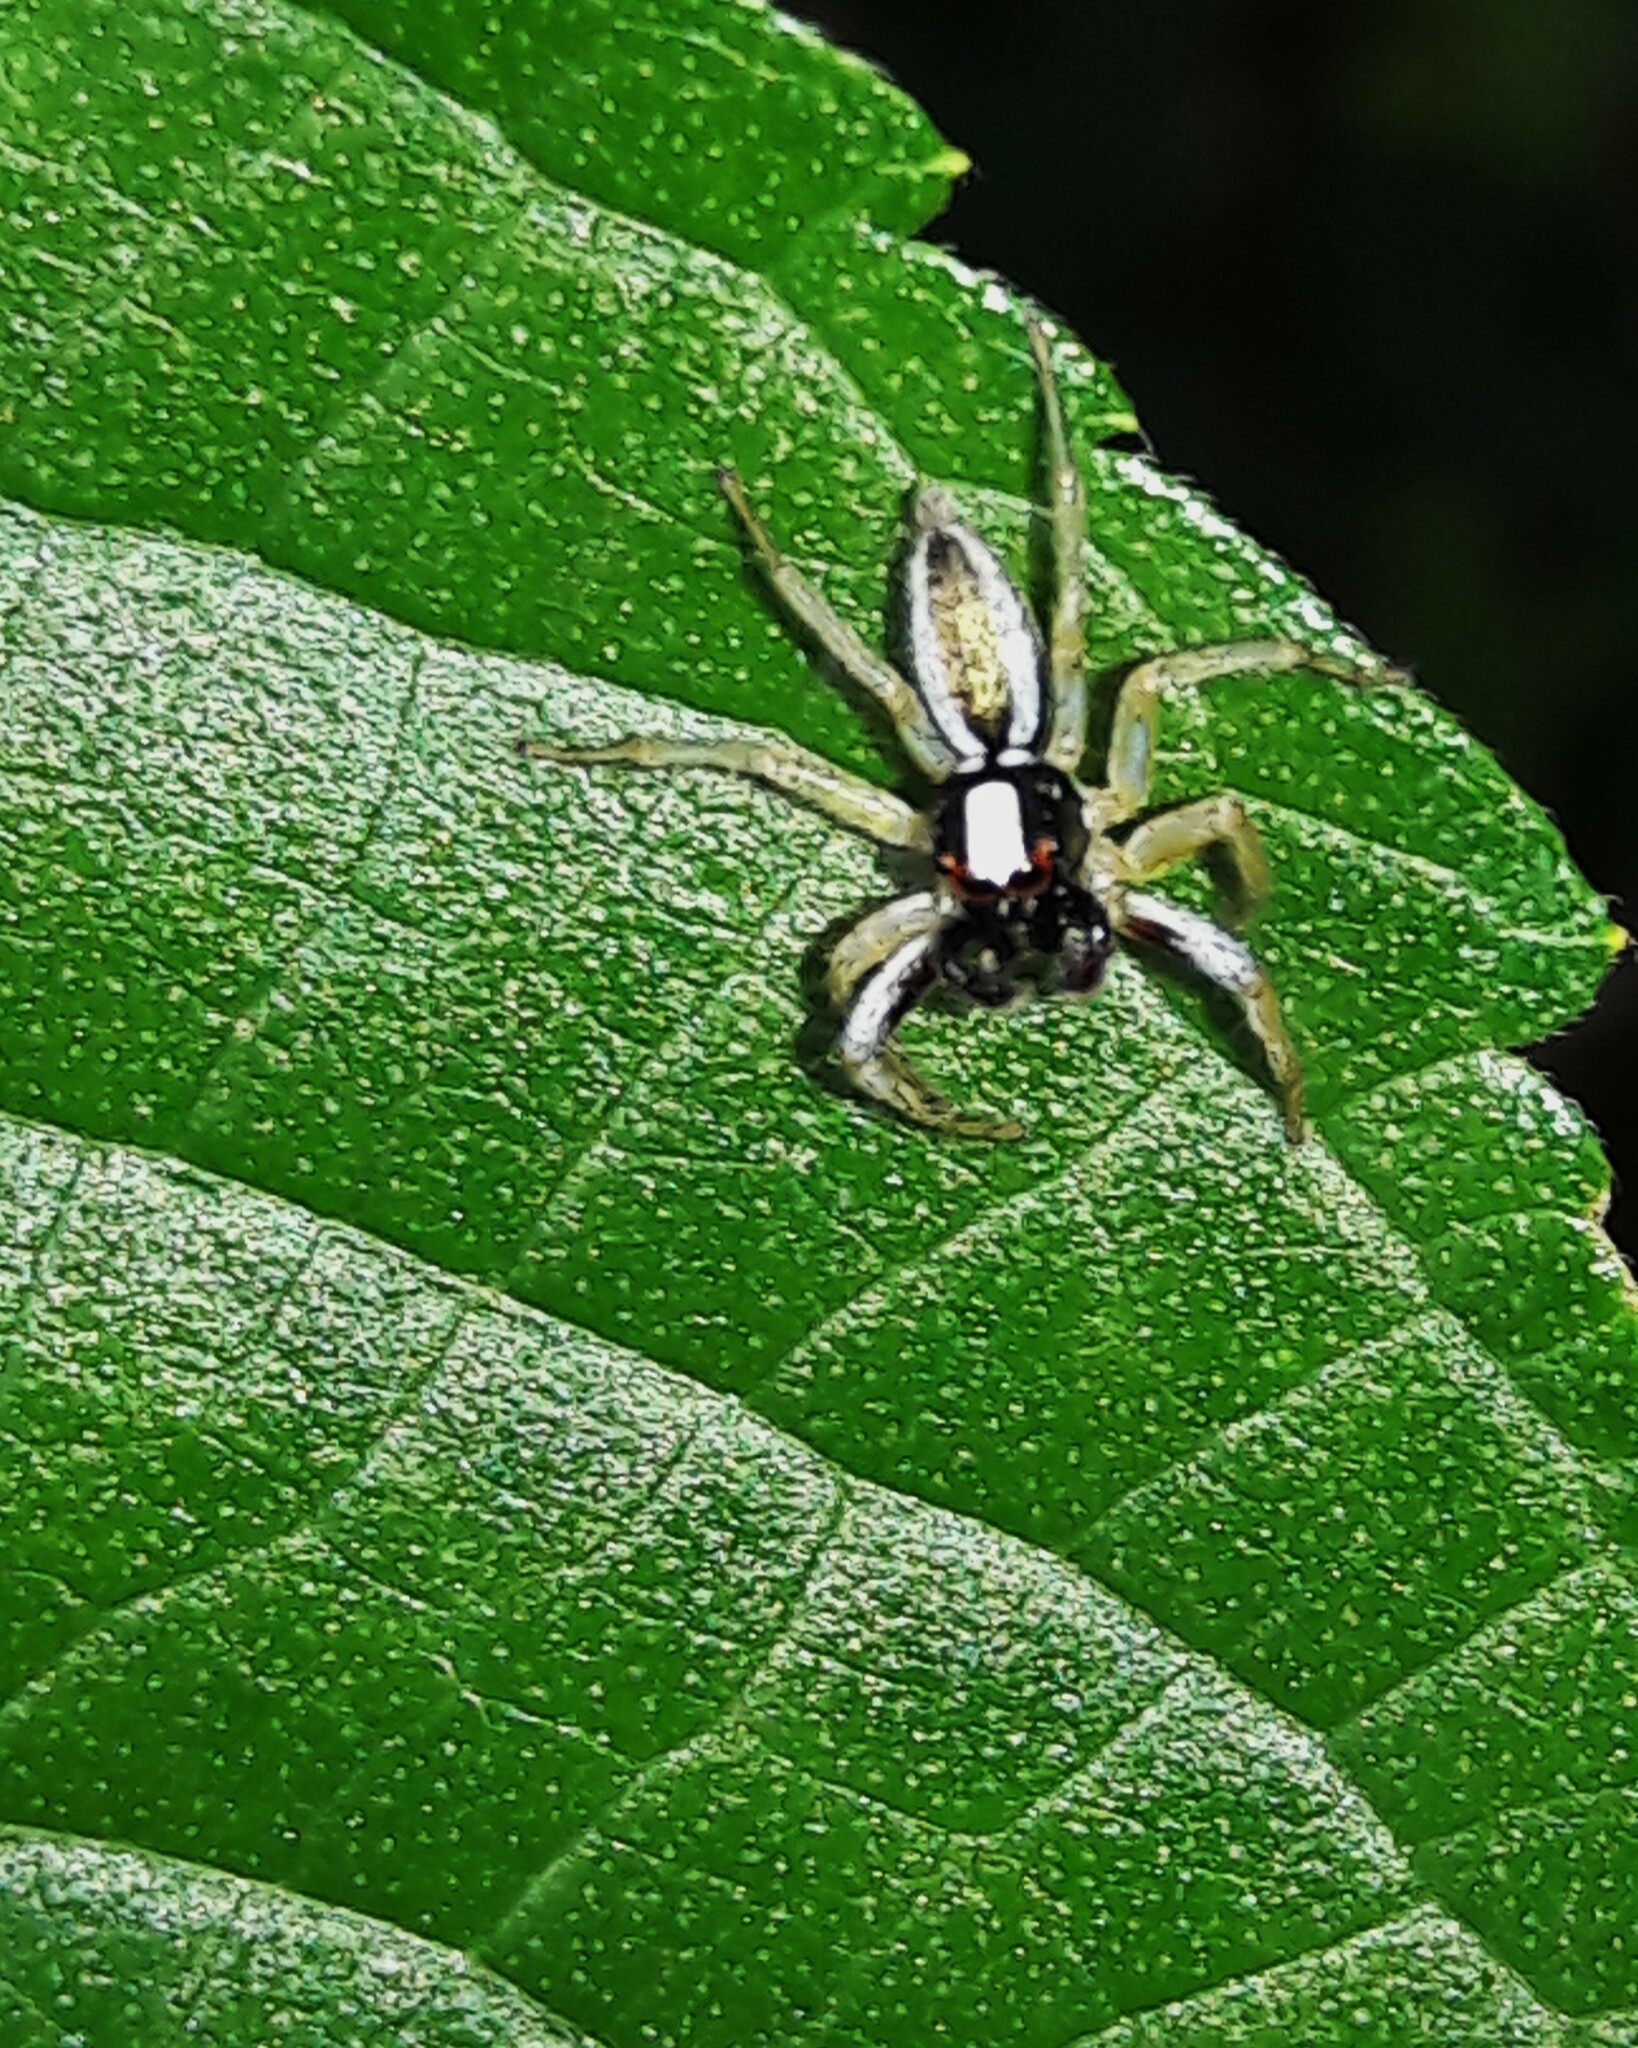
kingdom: Animalia
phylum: Arthropoda
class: Arachnida
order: Araneae
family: Salticidae
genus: Chira
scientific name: Chira spinosa
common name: Jumping spiders
